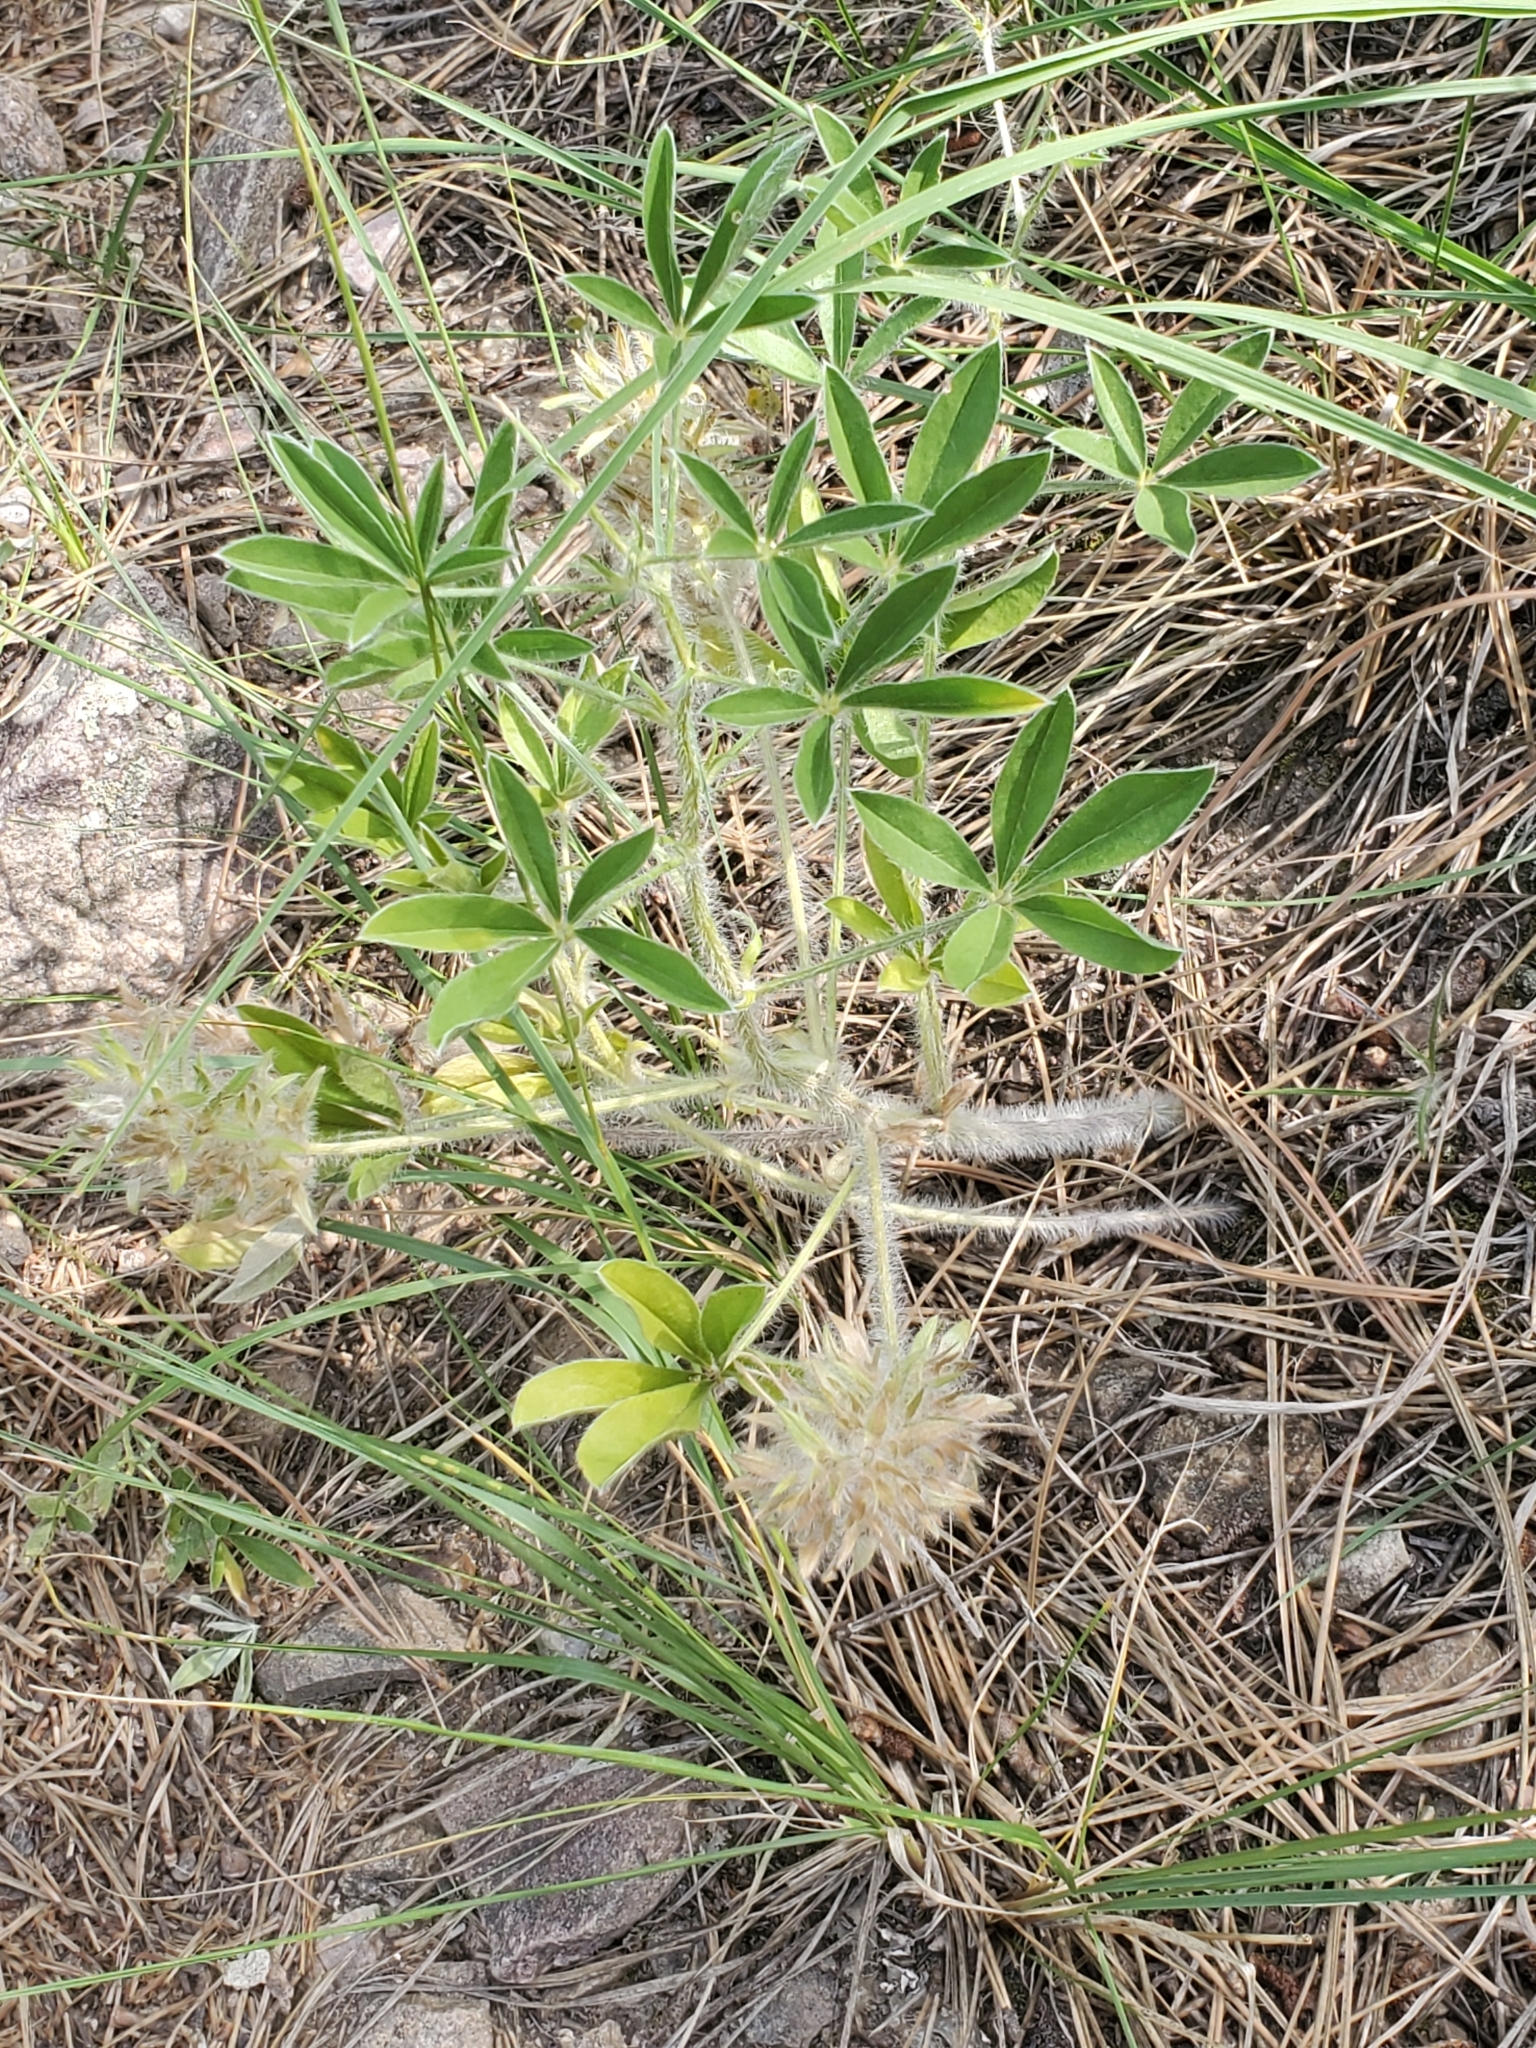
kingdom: Plantae
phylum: Tracheophyta
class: Magnoliopsida
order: Fabales
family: Fabaceae
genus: Pediomelum
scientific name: Pediomelum esculentum
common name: Indian-turnip
